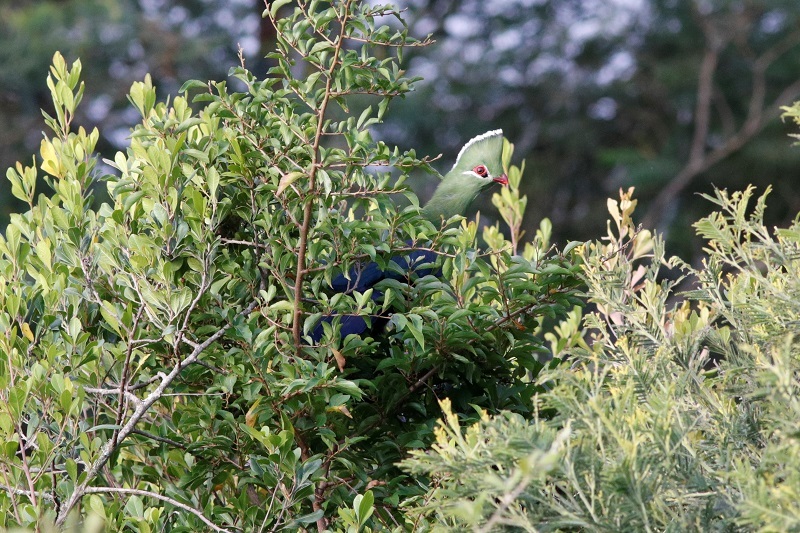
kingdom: Animalia
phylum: Chordata
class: Aves
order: Musophagiformes
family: Musophagidae
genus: Tauraco
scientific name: Tauraco corythaix
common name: Knysna turaco
